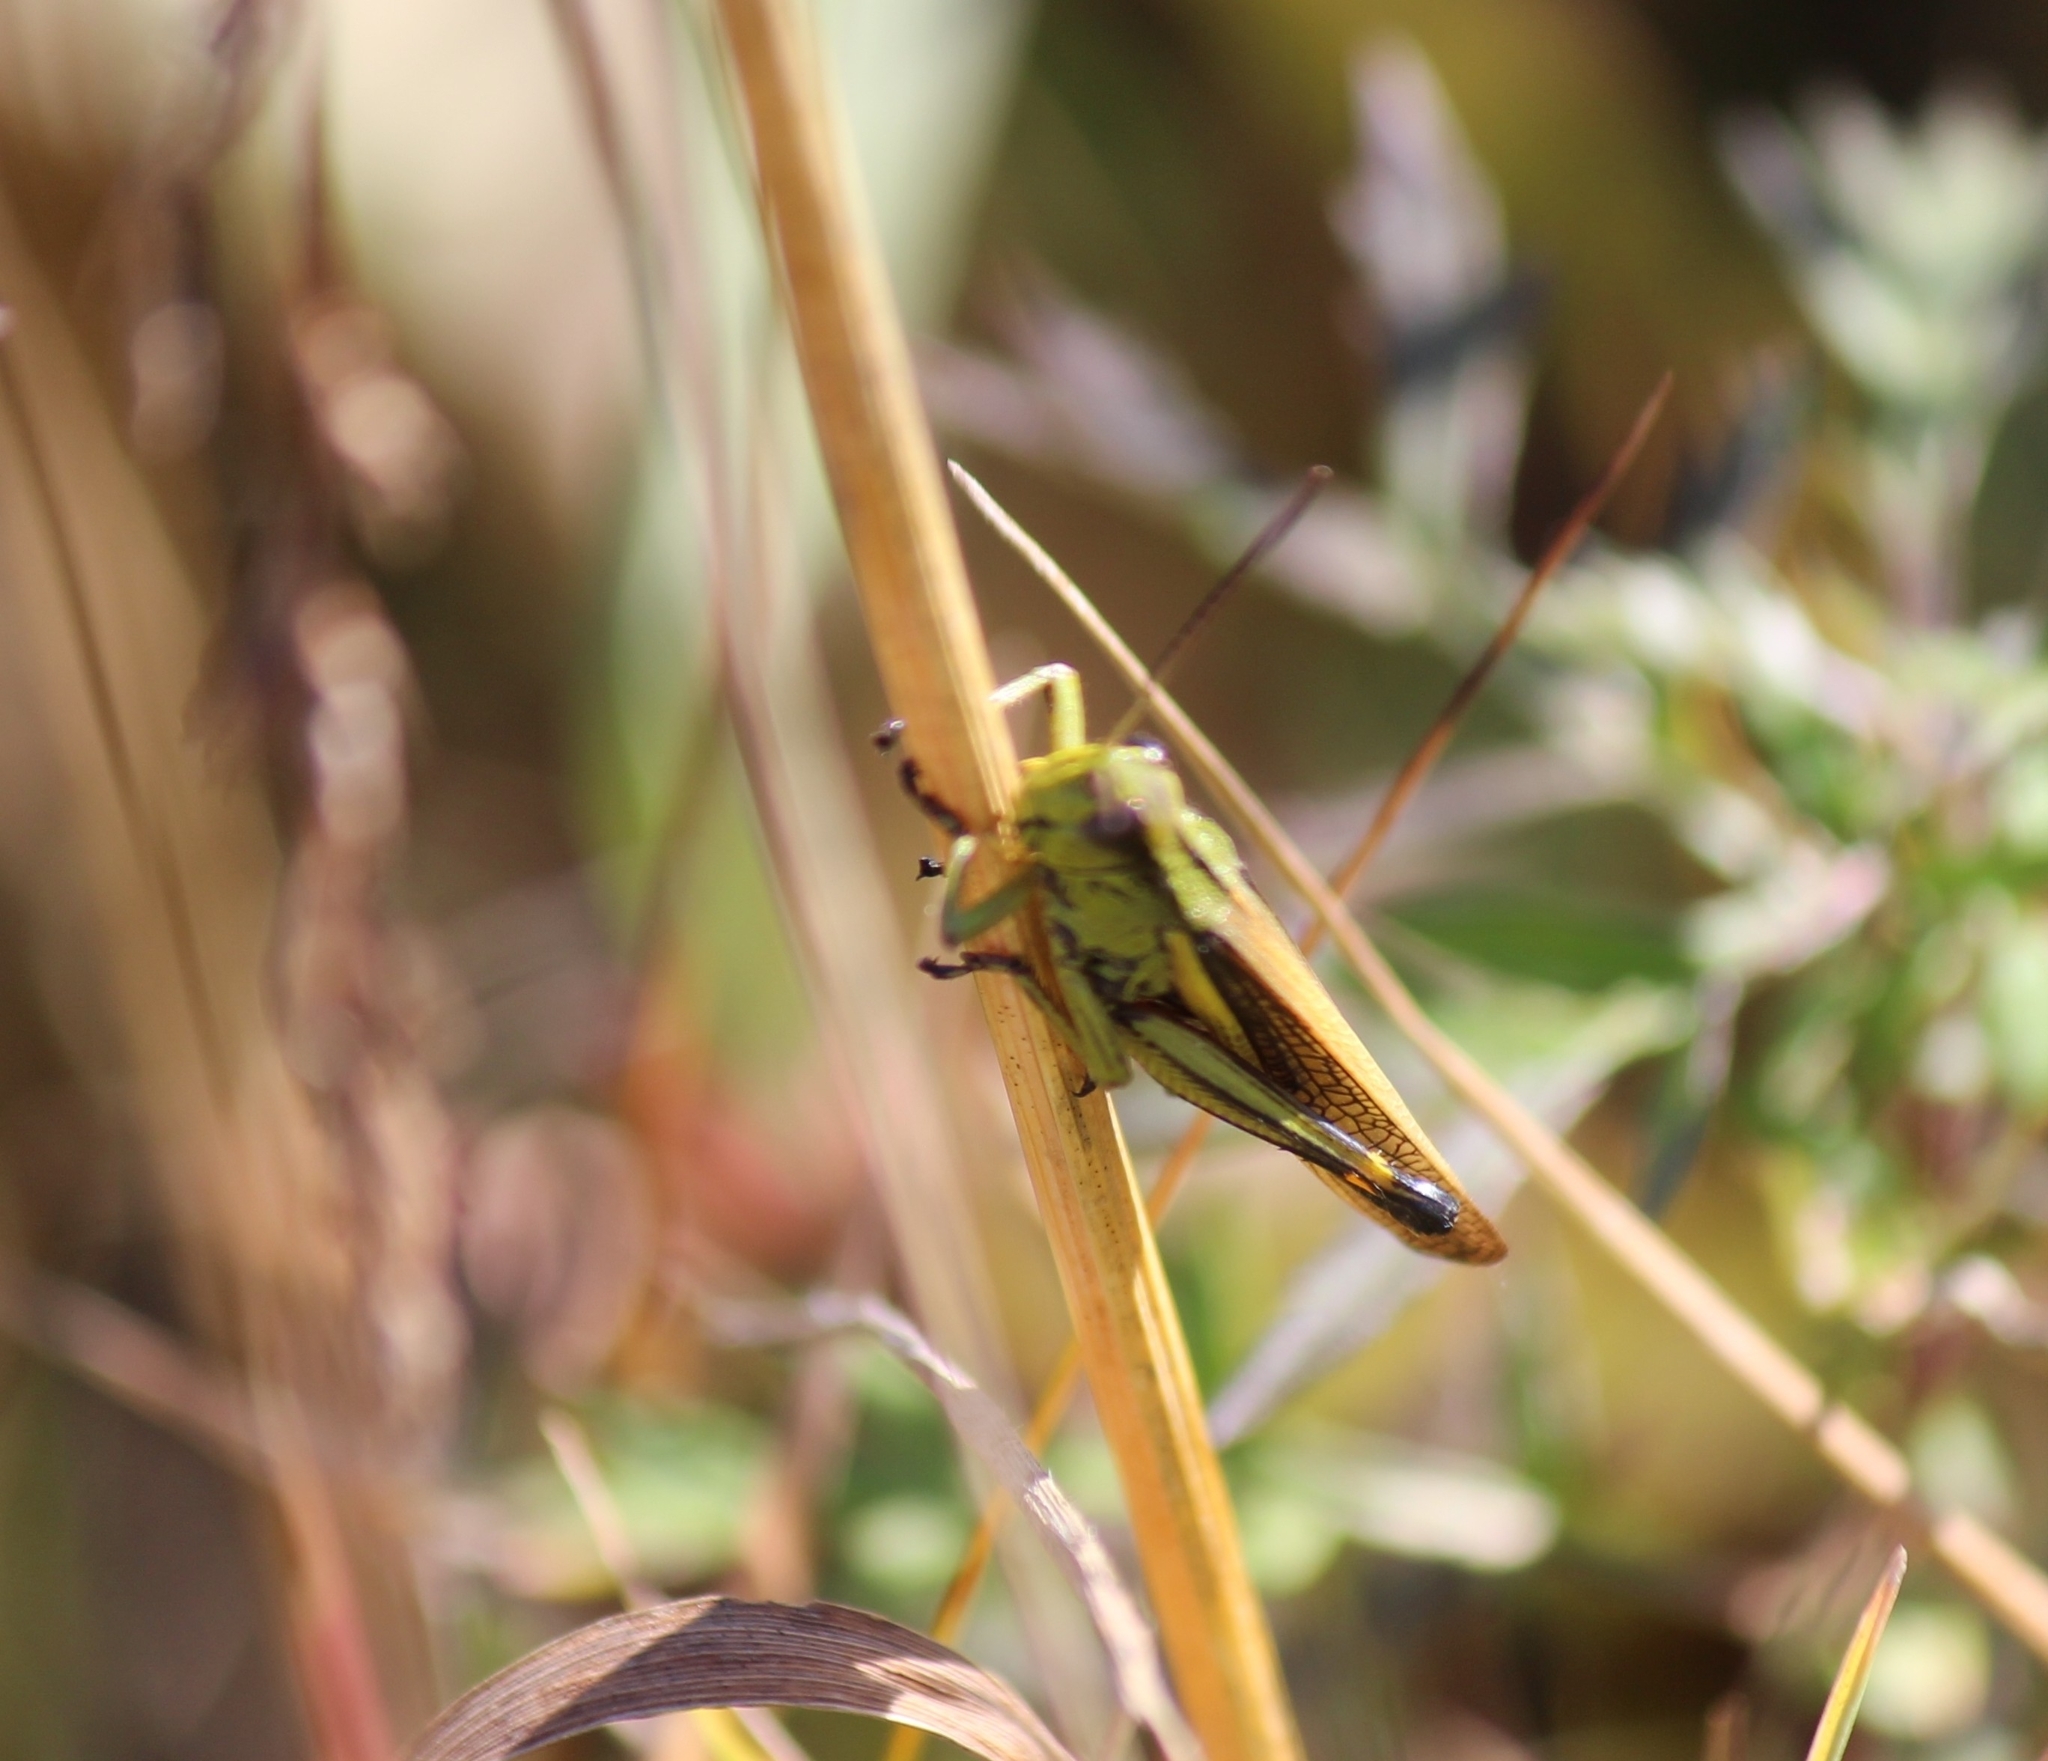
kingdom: Animalia
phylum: Arthropoda
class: Insecta
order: Orthoptera
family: Acrididae
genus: Stethophyma
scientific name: Stethophyma grossum
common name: Large marsh grasshopper
